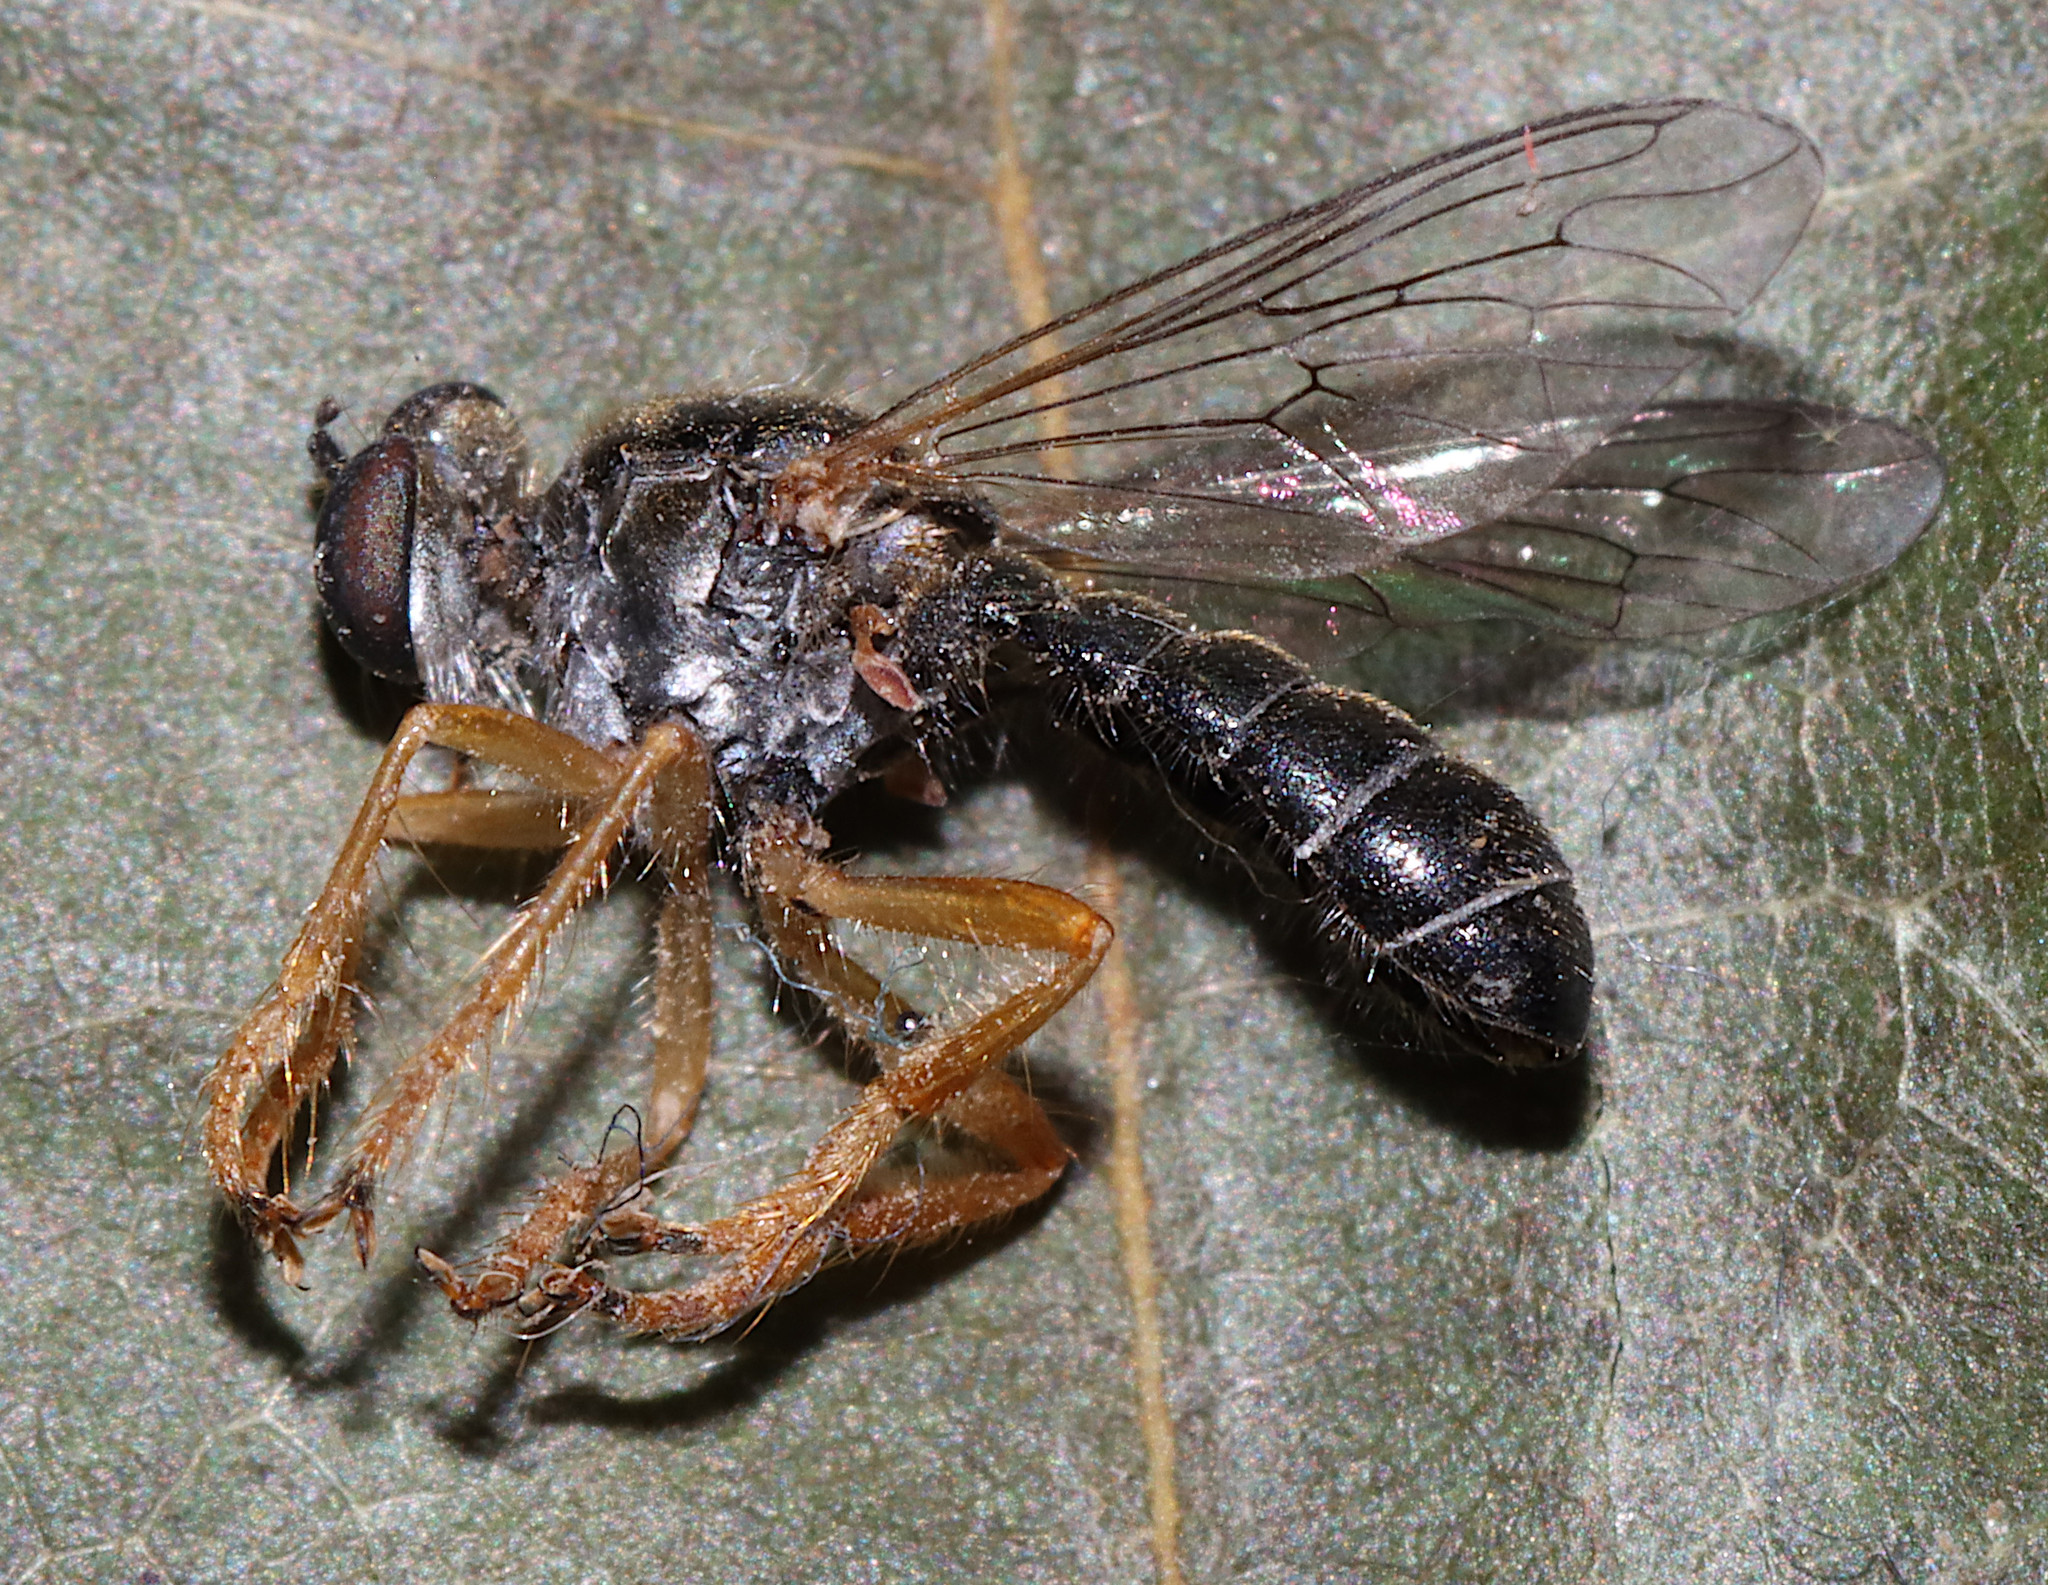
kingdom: Animalia
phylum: Arthropoda
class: Insecta
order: Diptera
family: Asilidae
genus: Atomosia
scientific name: Atomosia sayii
